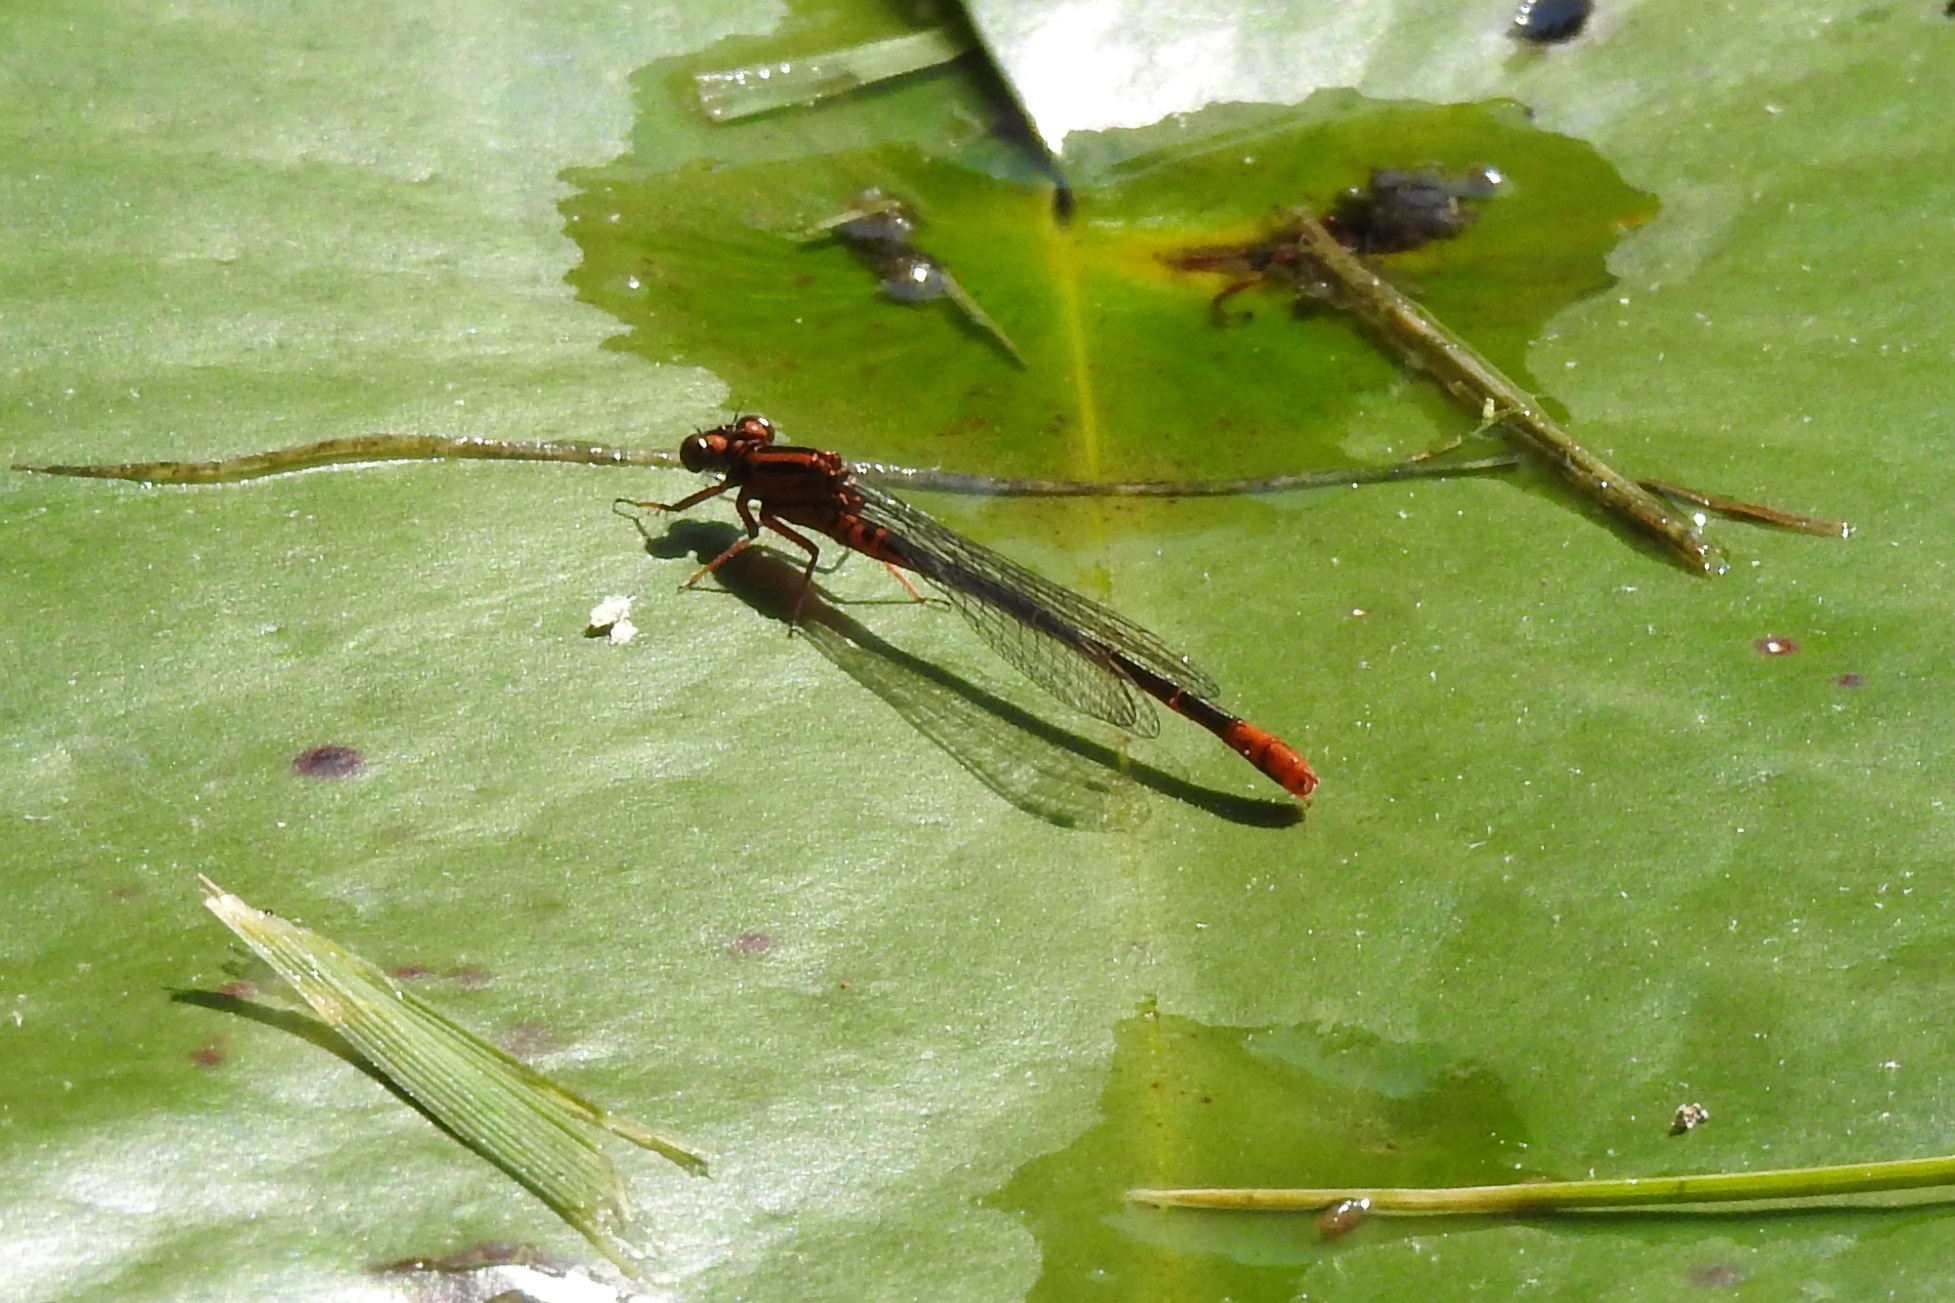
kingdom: Animalia
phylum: Arthropoda
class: Insecta
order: Odonata
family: Coenagrionidae
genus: Ischnura
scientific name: Ischnura kellicotti
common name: Lilypad forktail
